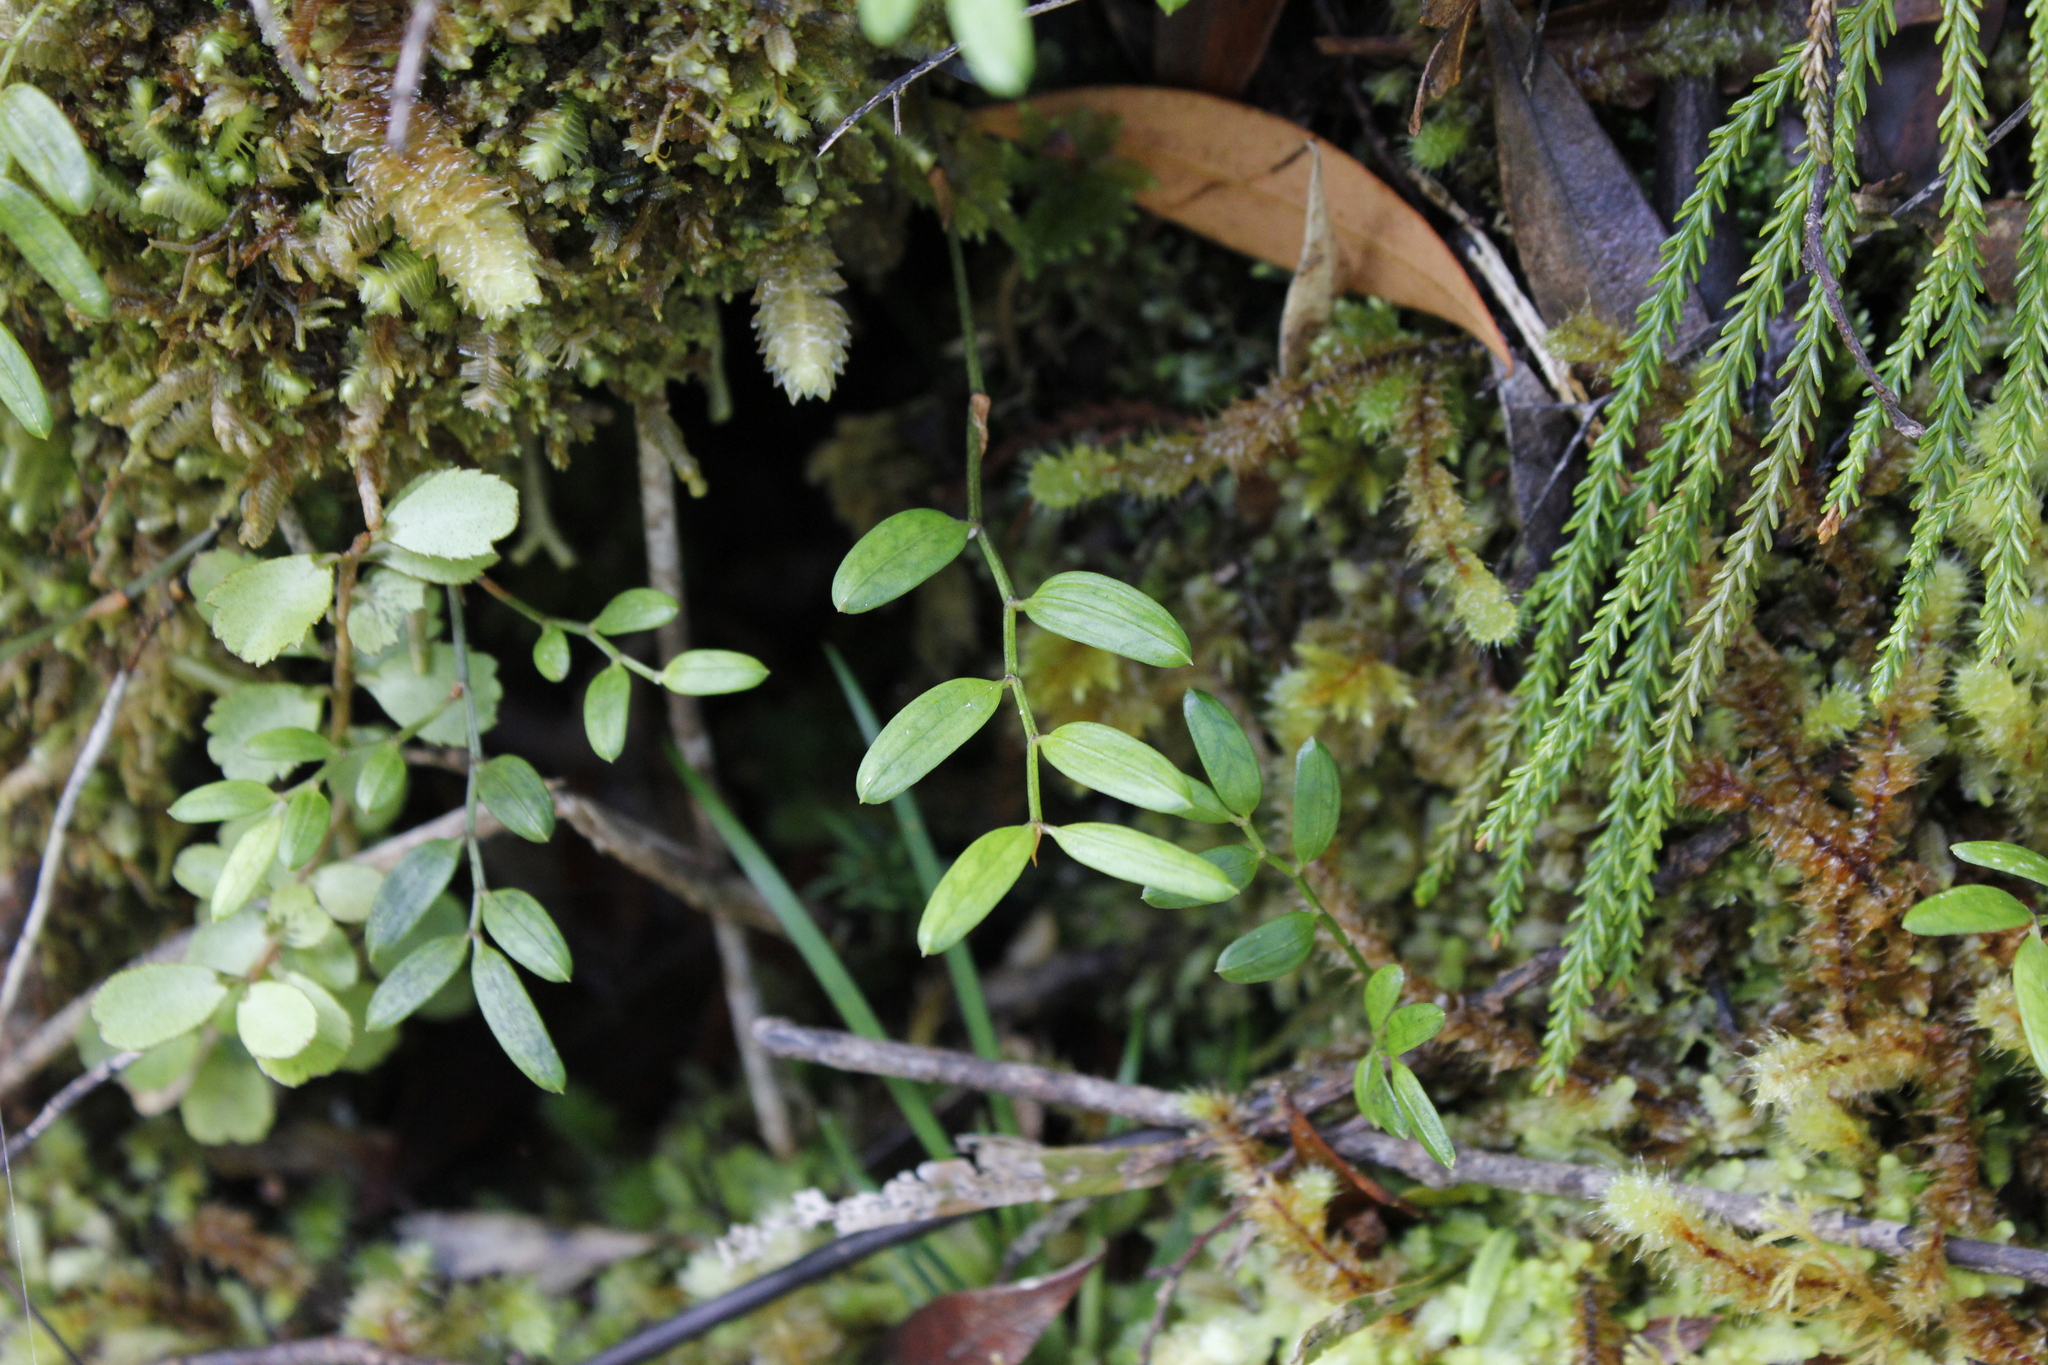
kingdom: Plantae
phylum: Tracheophyta
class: Liliopsida
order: Liliales
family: Alstroemeriaceae
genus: Luzuriaga
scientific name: Luzuriaga parviflora
